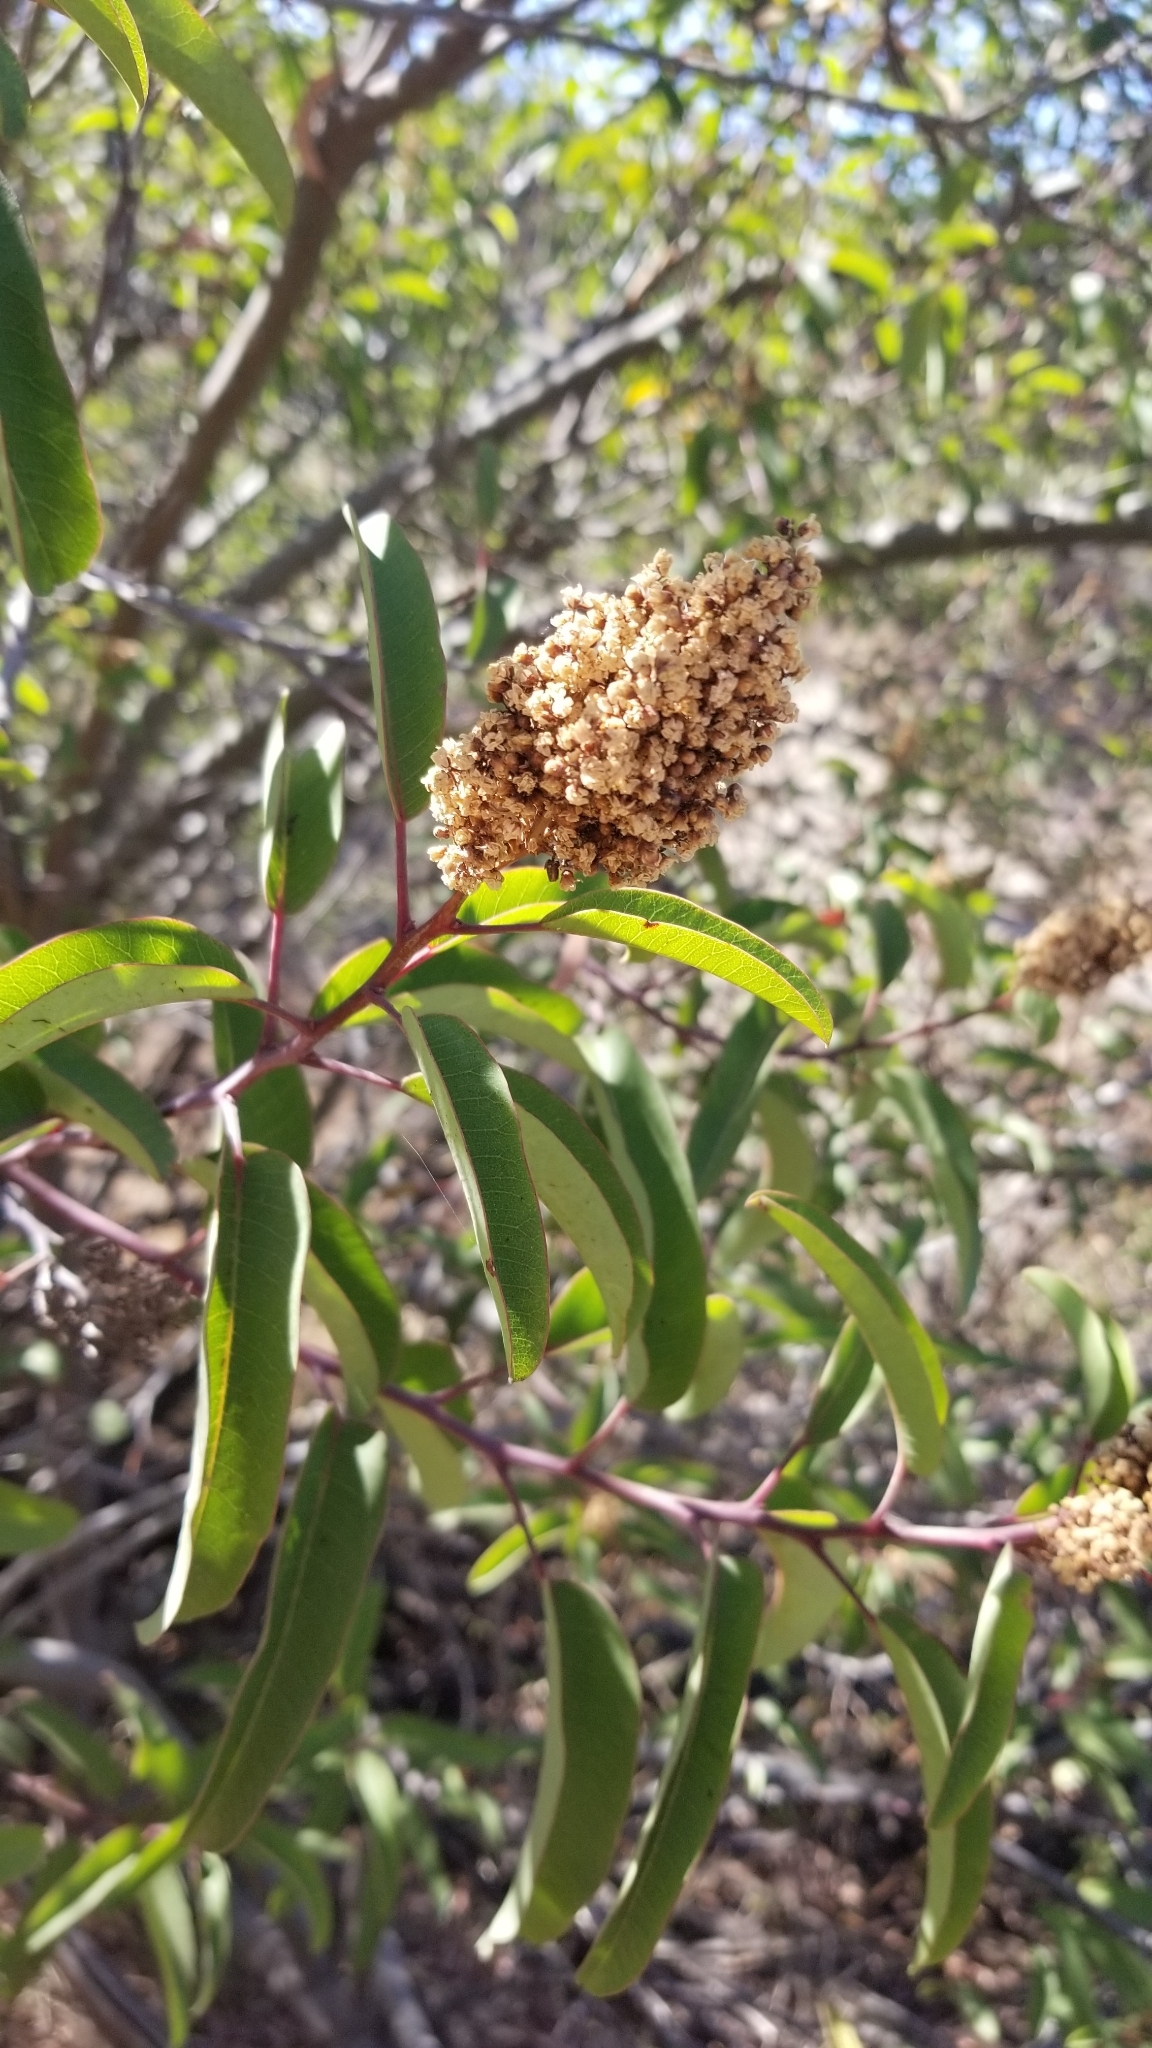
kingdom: Plantae
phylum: Tracheophyta
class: Magnoliopsida
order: Sapindales
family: Anacardiaceae
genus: Malosma
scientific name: Malosma laurina
